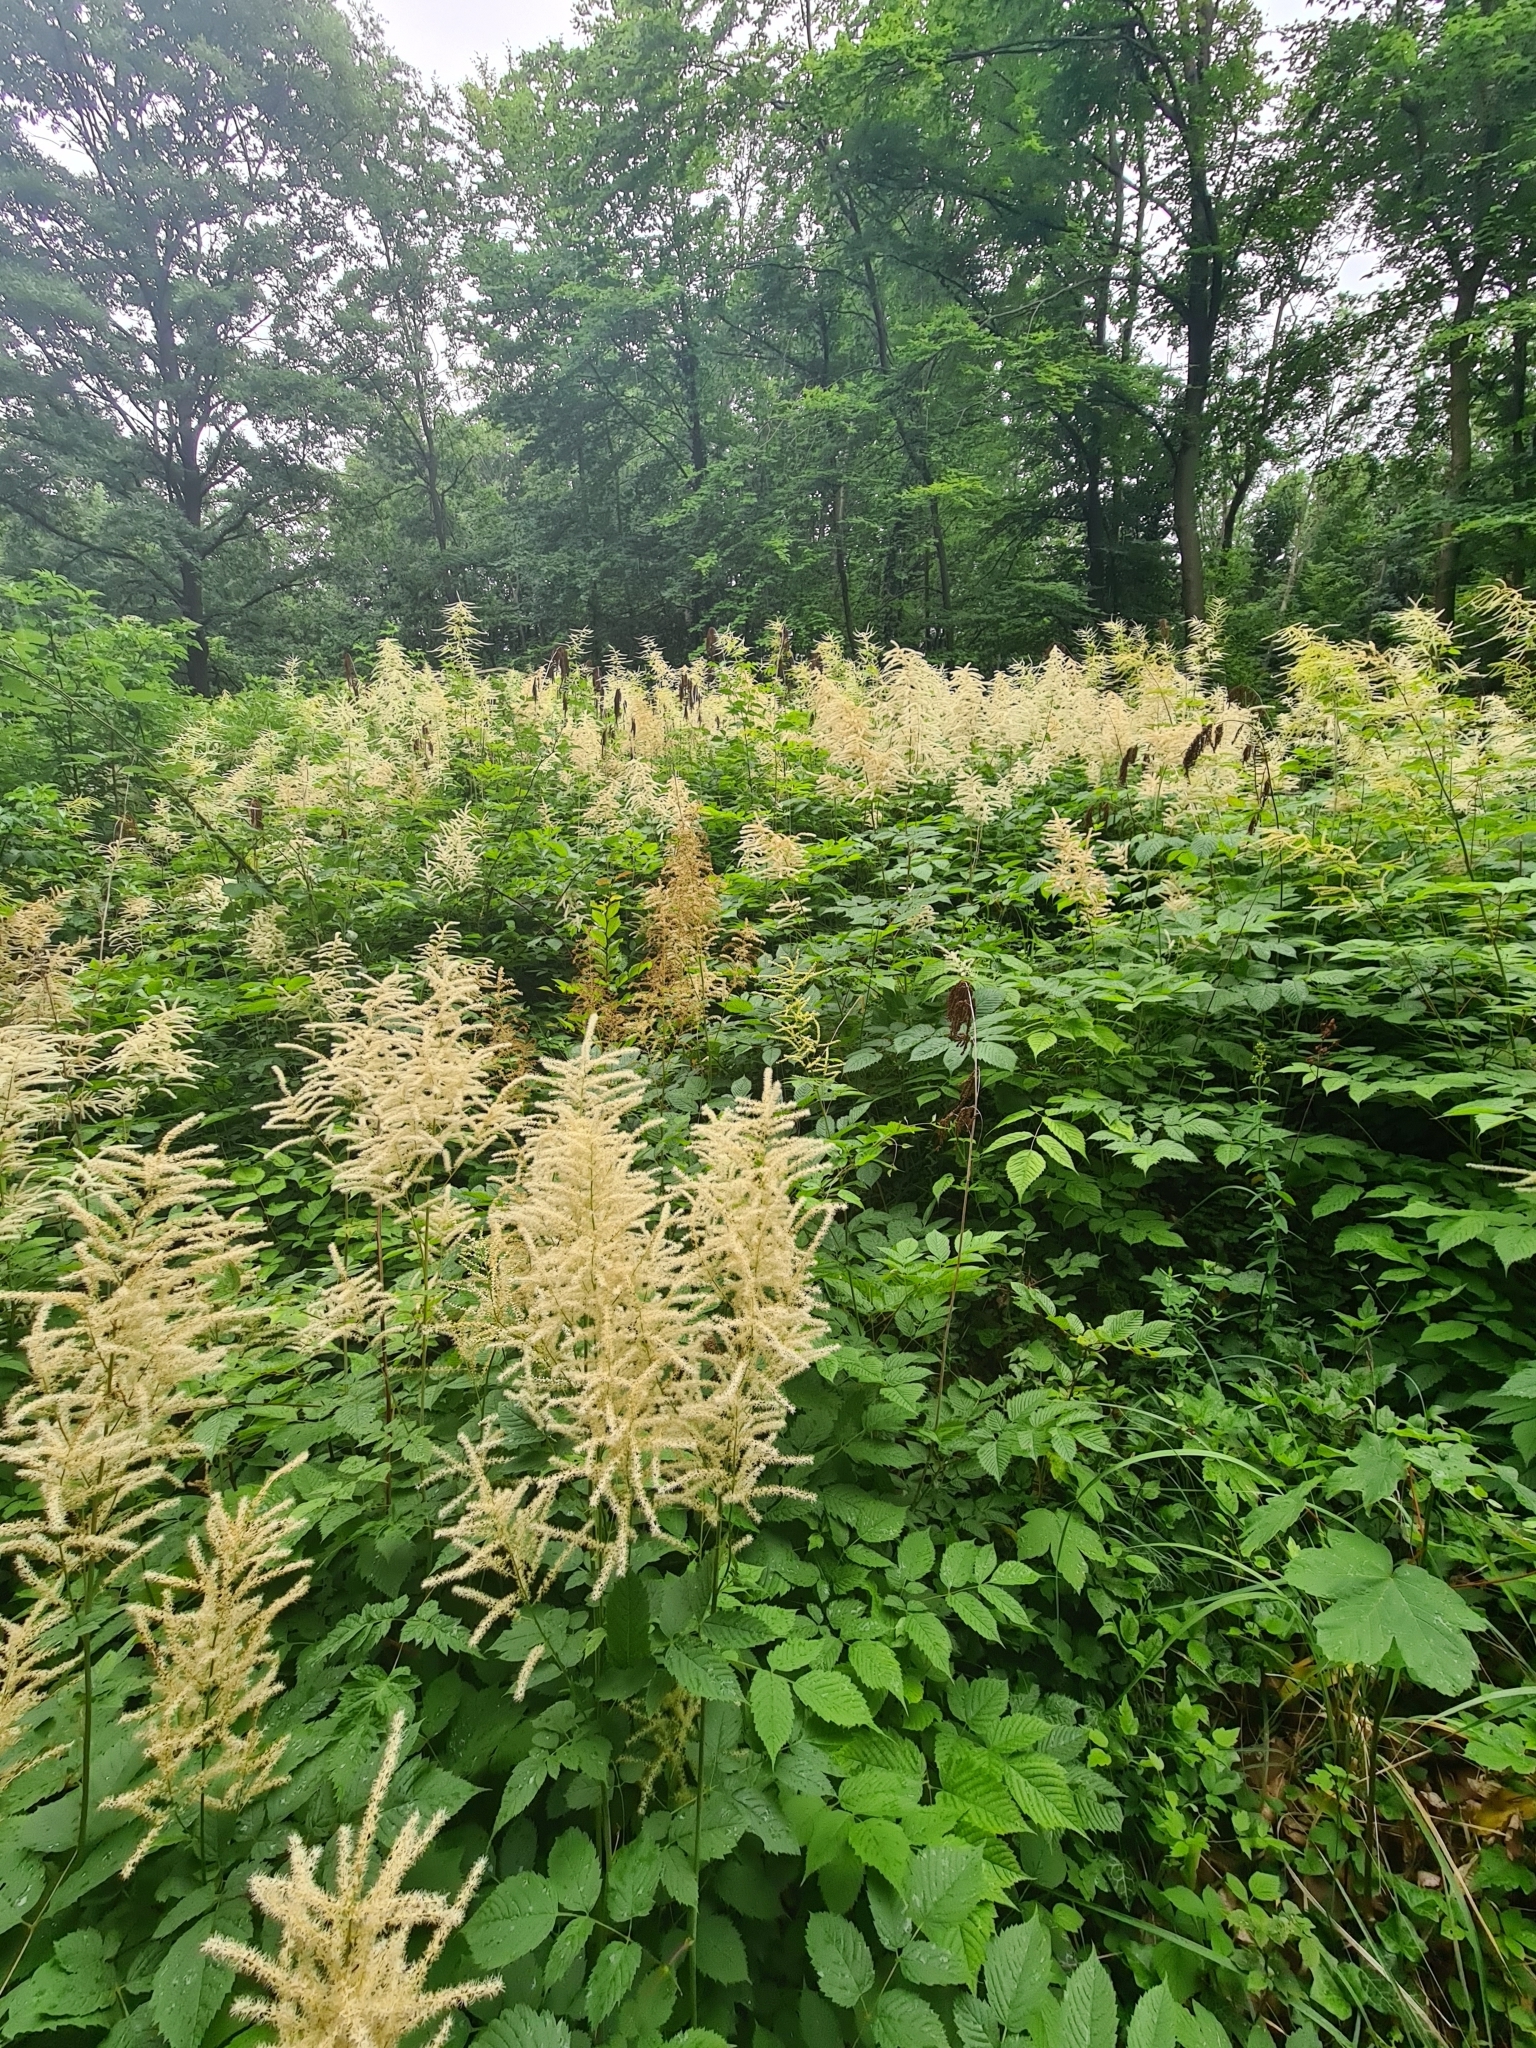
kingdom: Plantae
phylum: Tracheophyta
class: Magnoliopsida
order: Rosales
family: Rosaceae
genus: Aruncus
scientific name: Aruncus dioicus
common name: Buck's-beard
